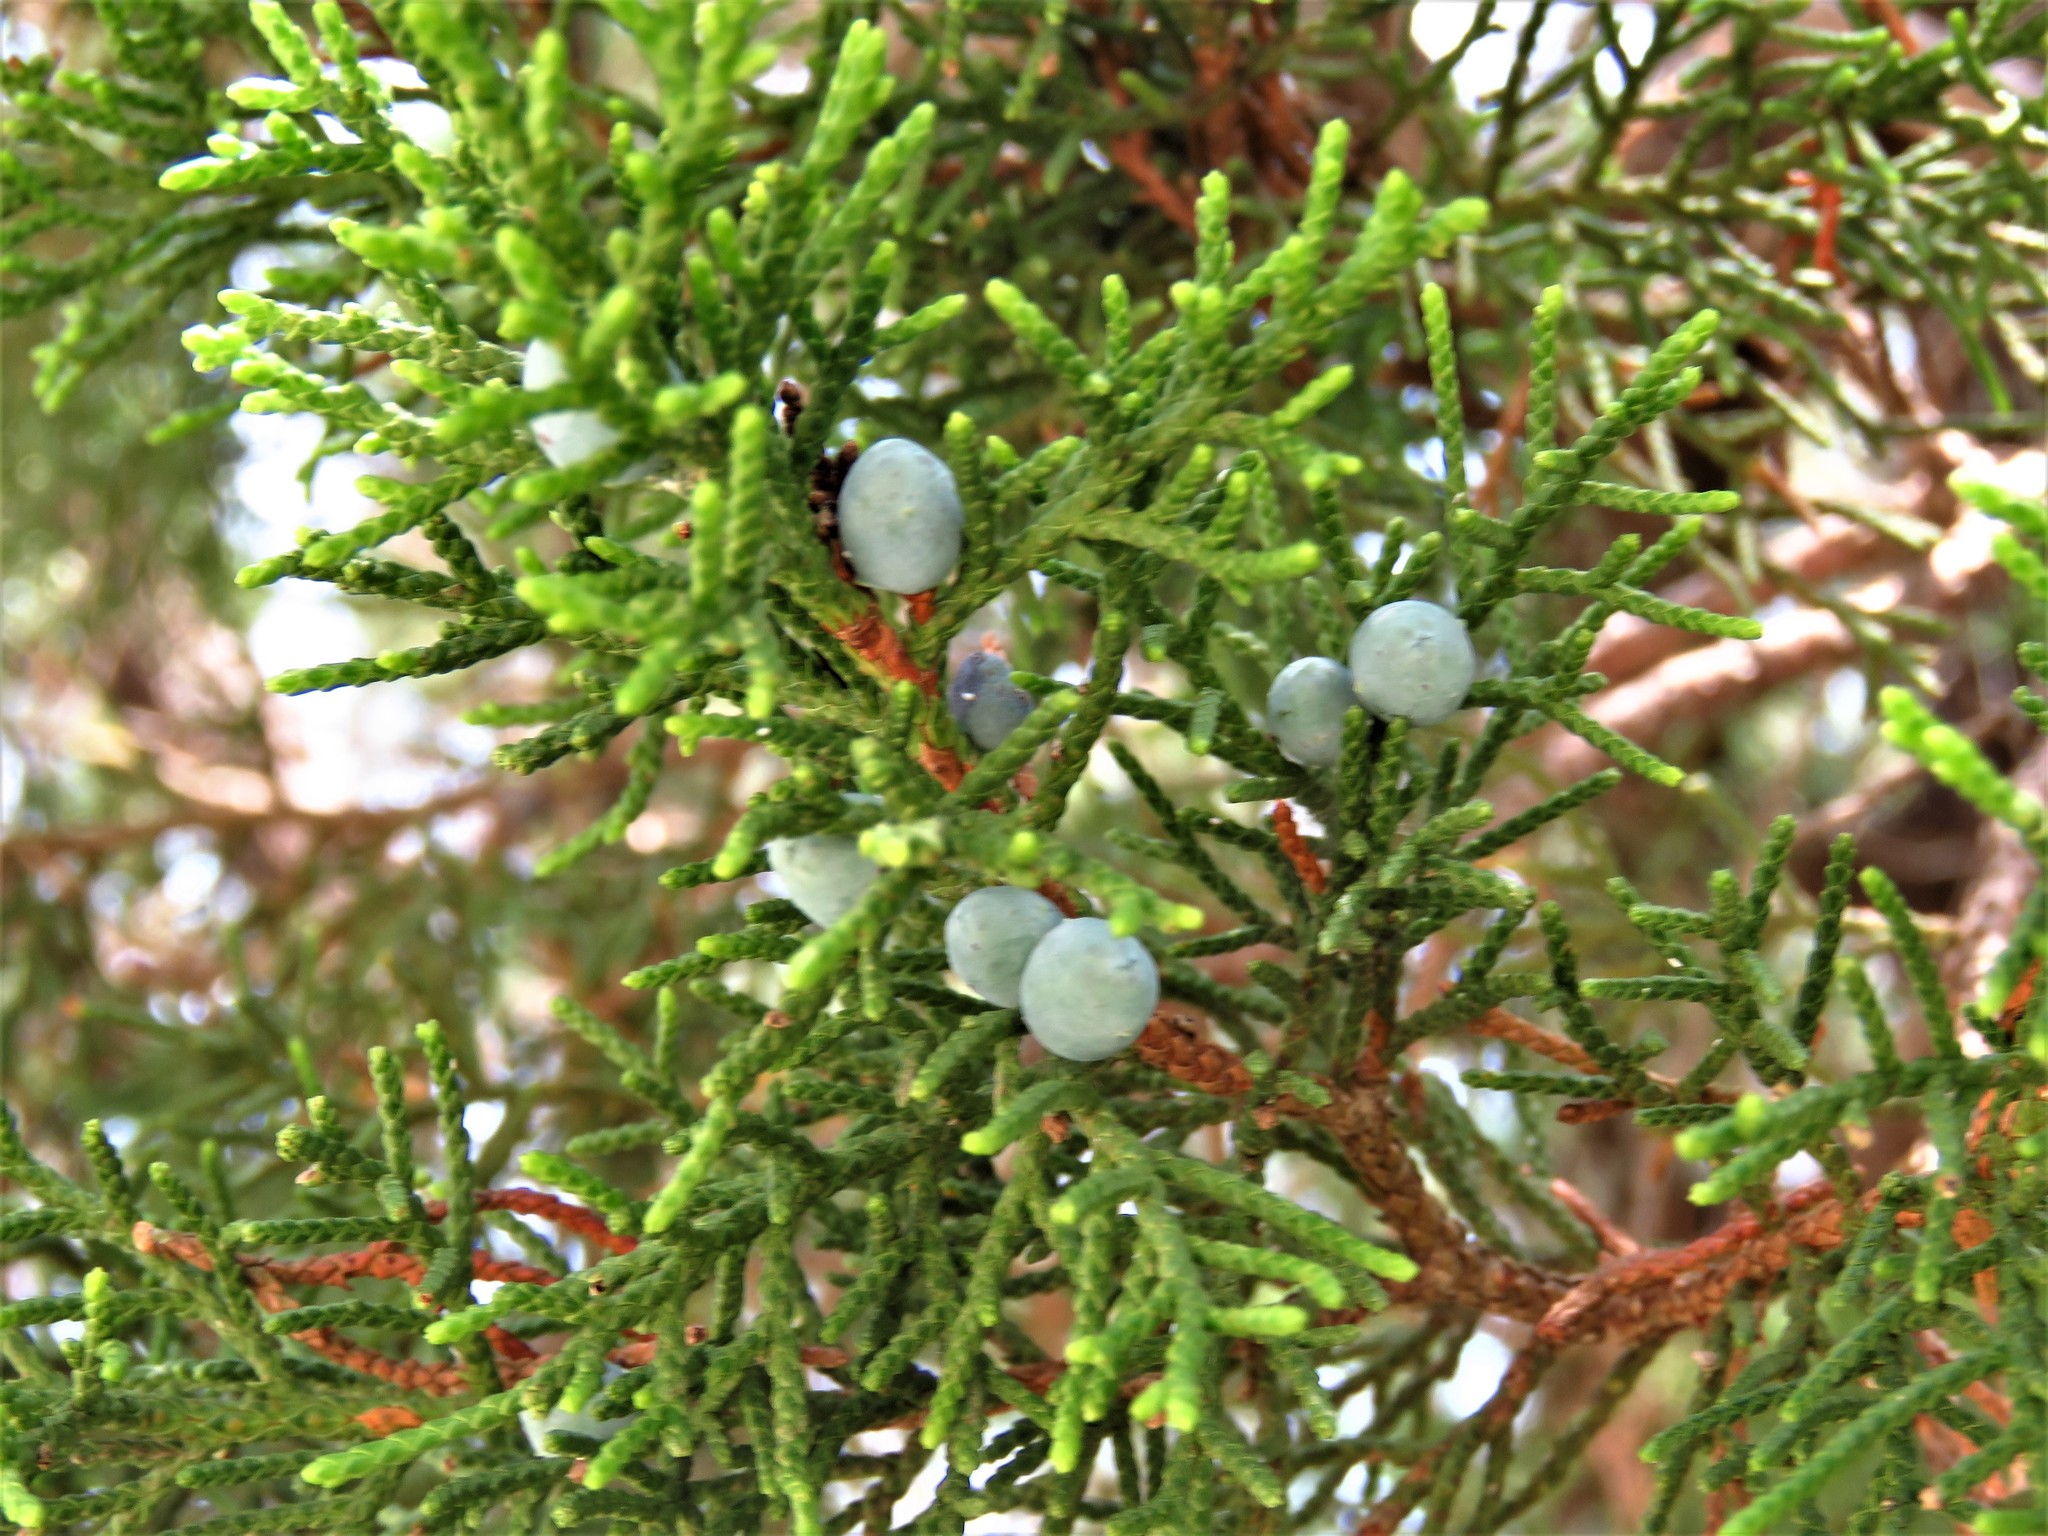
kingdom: Plantae
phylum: Tracheophyta
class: Pinopsida
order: Pinales
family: Cupressaceae
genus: Juniperus
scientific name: Juniperus virginiana
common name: Red juniper
